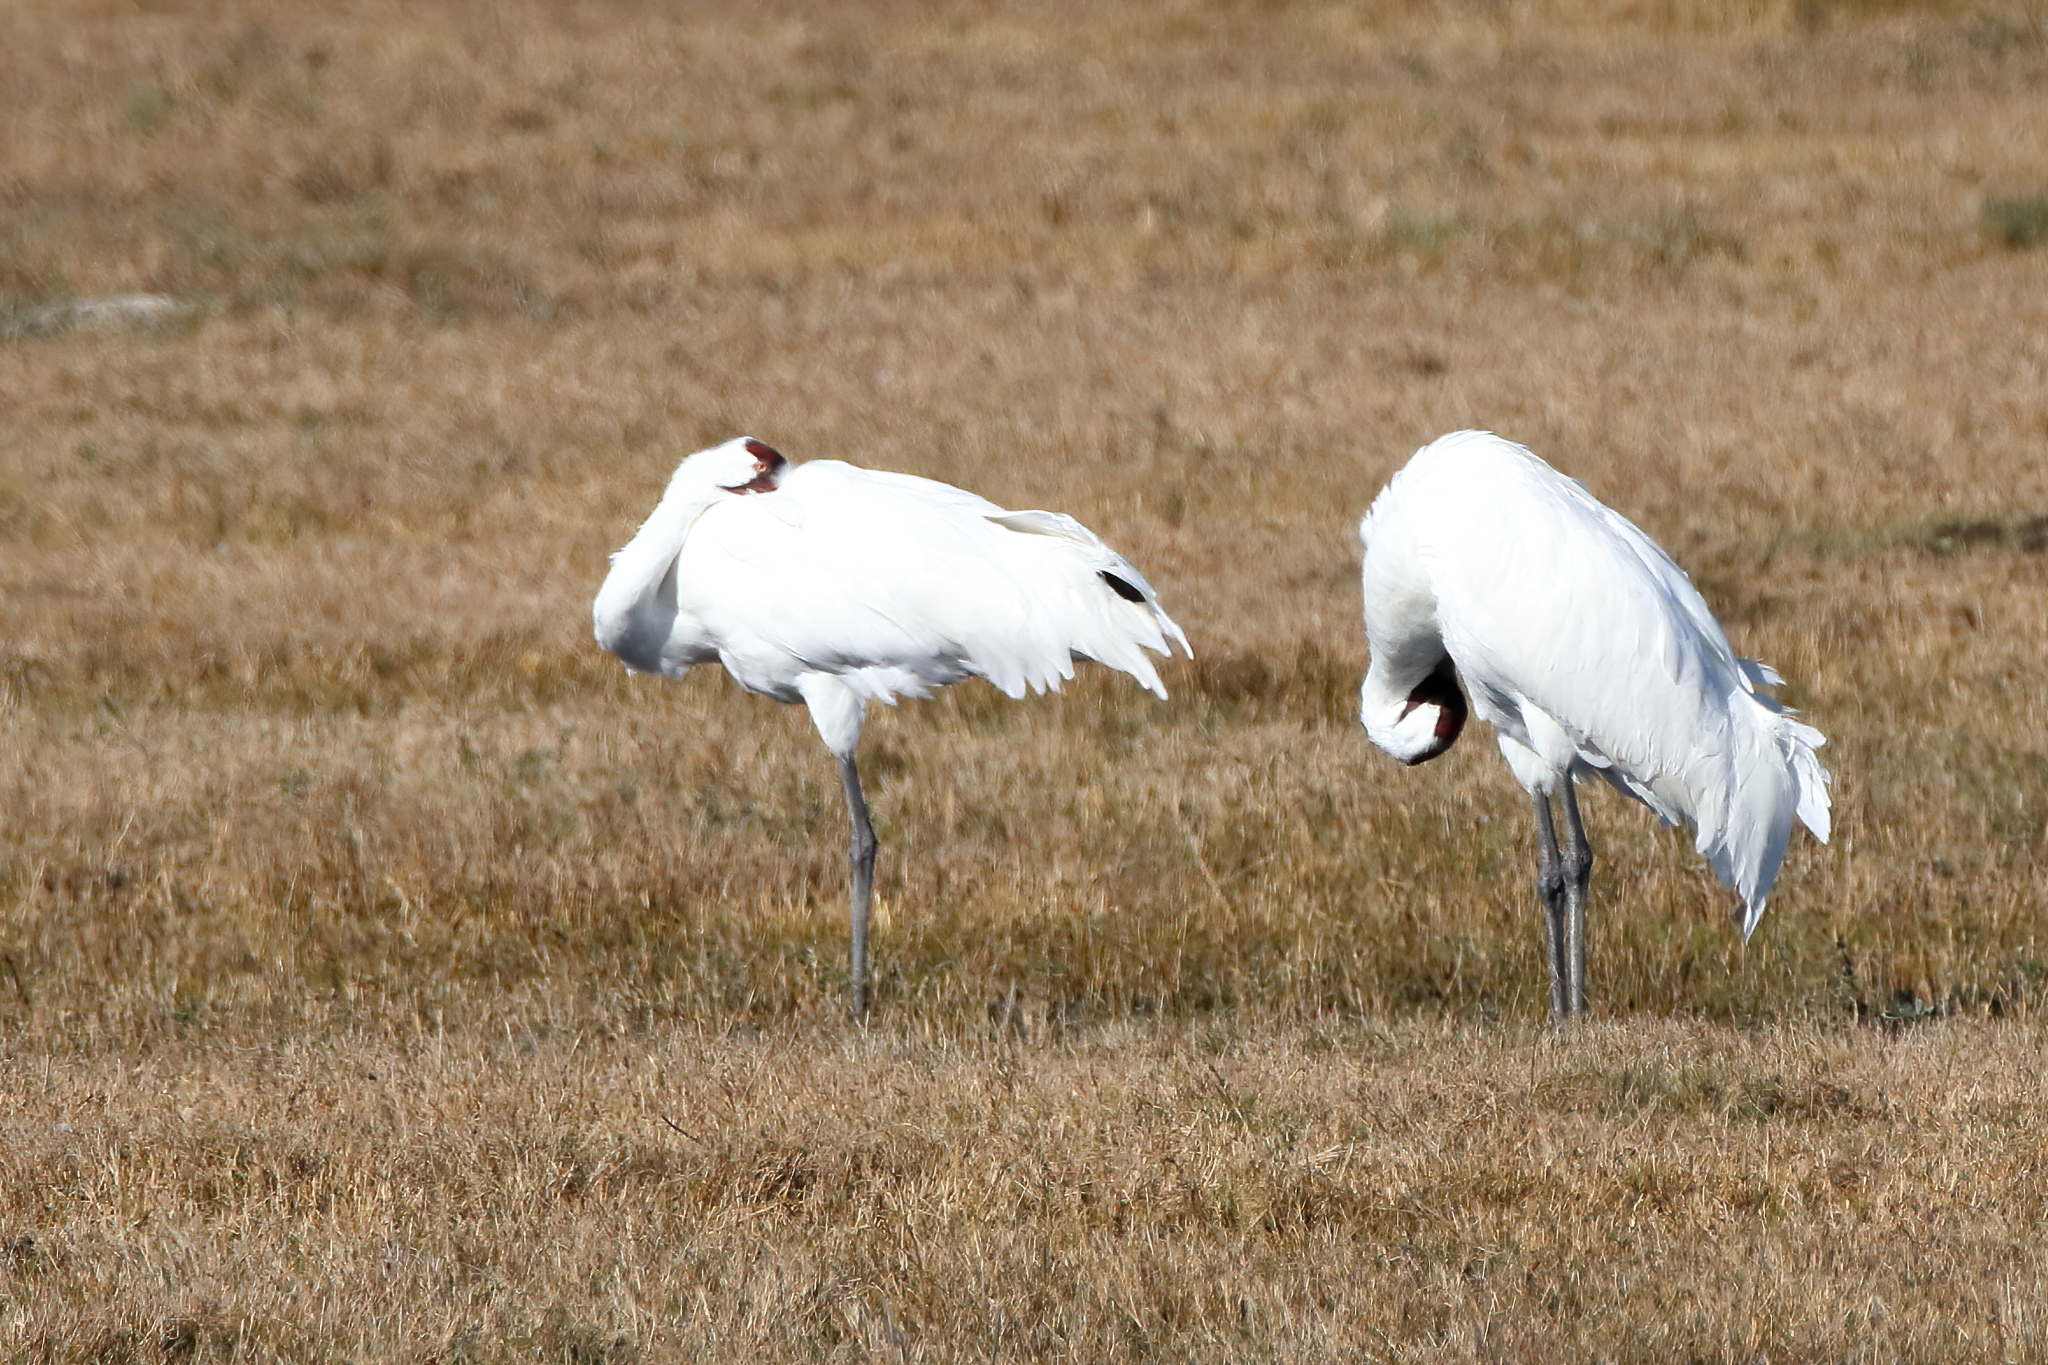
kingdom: Animalia
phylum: Chordata
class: Aves
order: Gruiformes
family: Gruidae
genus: Grus
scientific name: Grus americana
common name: Whooping crane
